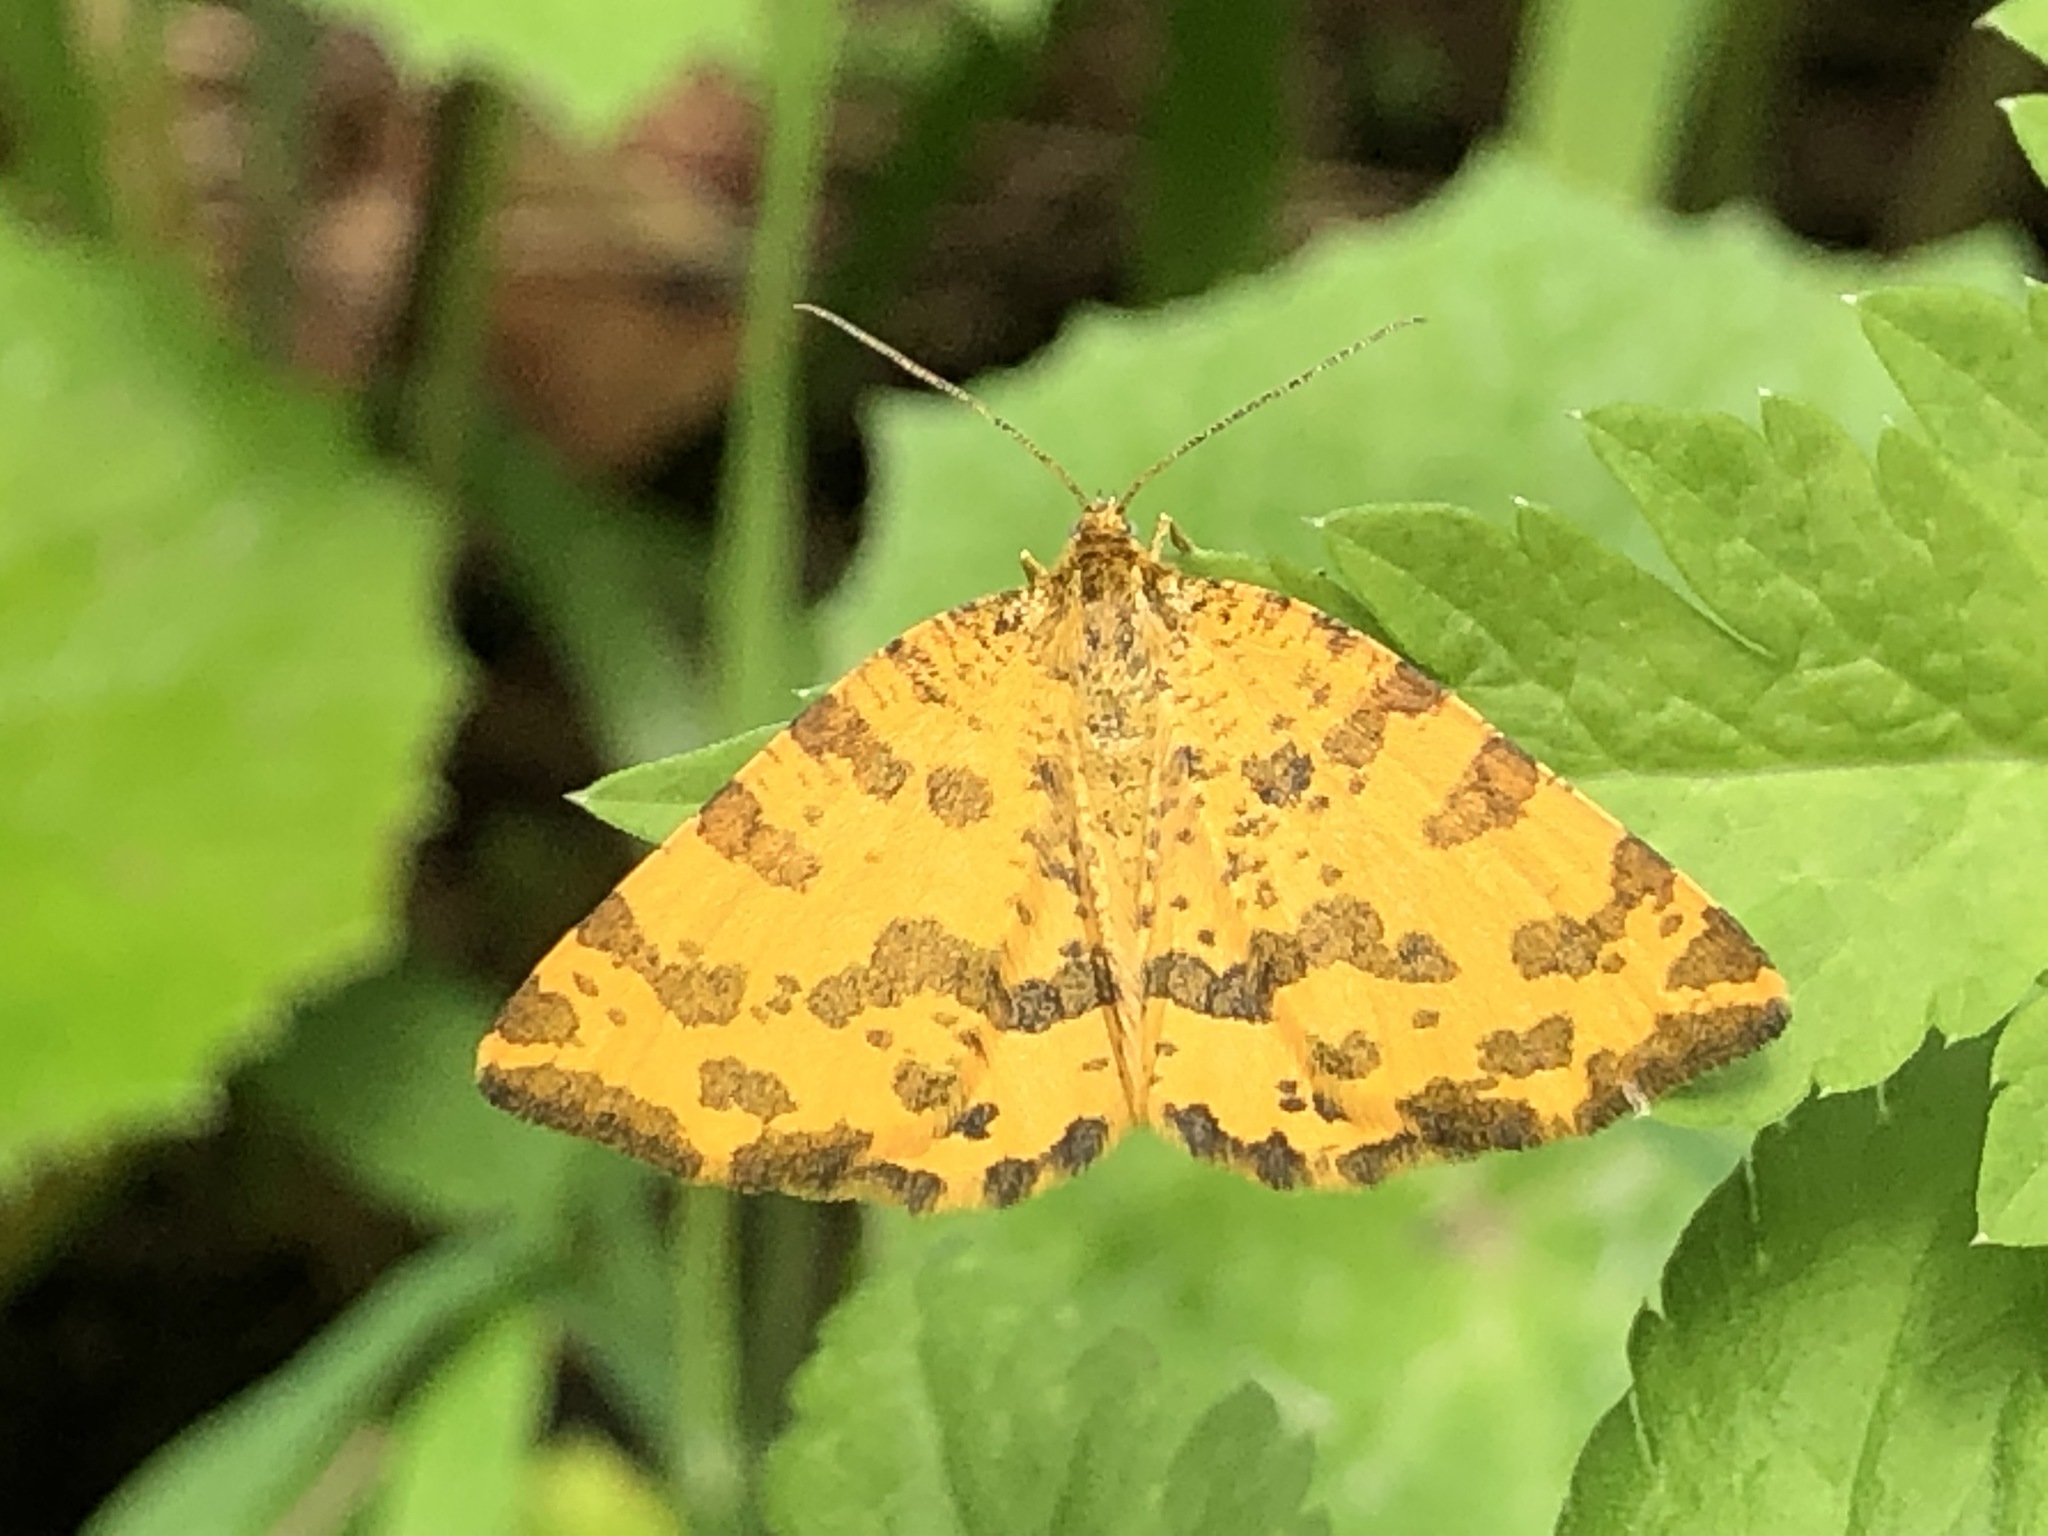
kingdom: Animalia
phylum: Arthropoda
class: Insecta
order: Lepidoptera
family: Geometridae
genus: Pseudopanthera
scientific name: Pseudopanthera macularia
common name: Speckled yellow
